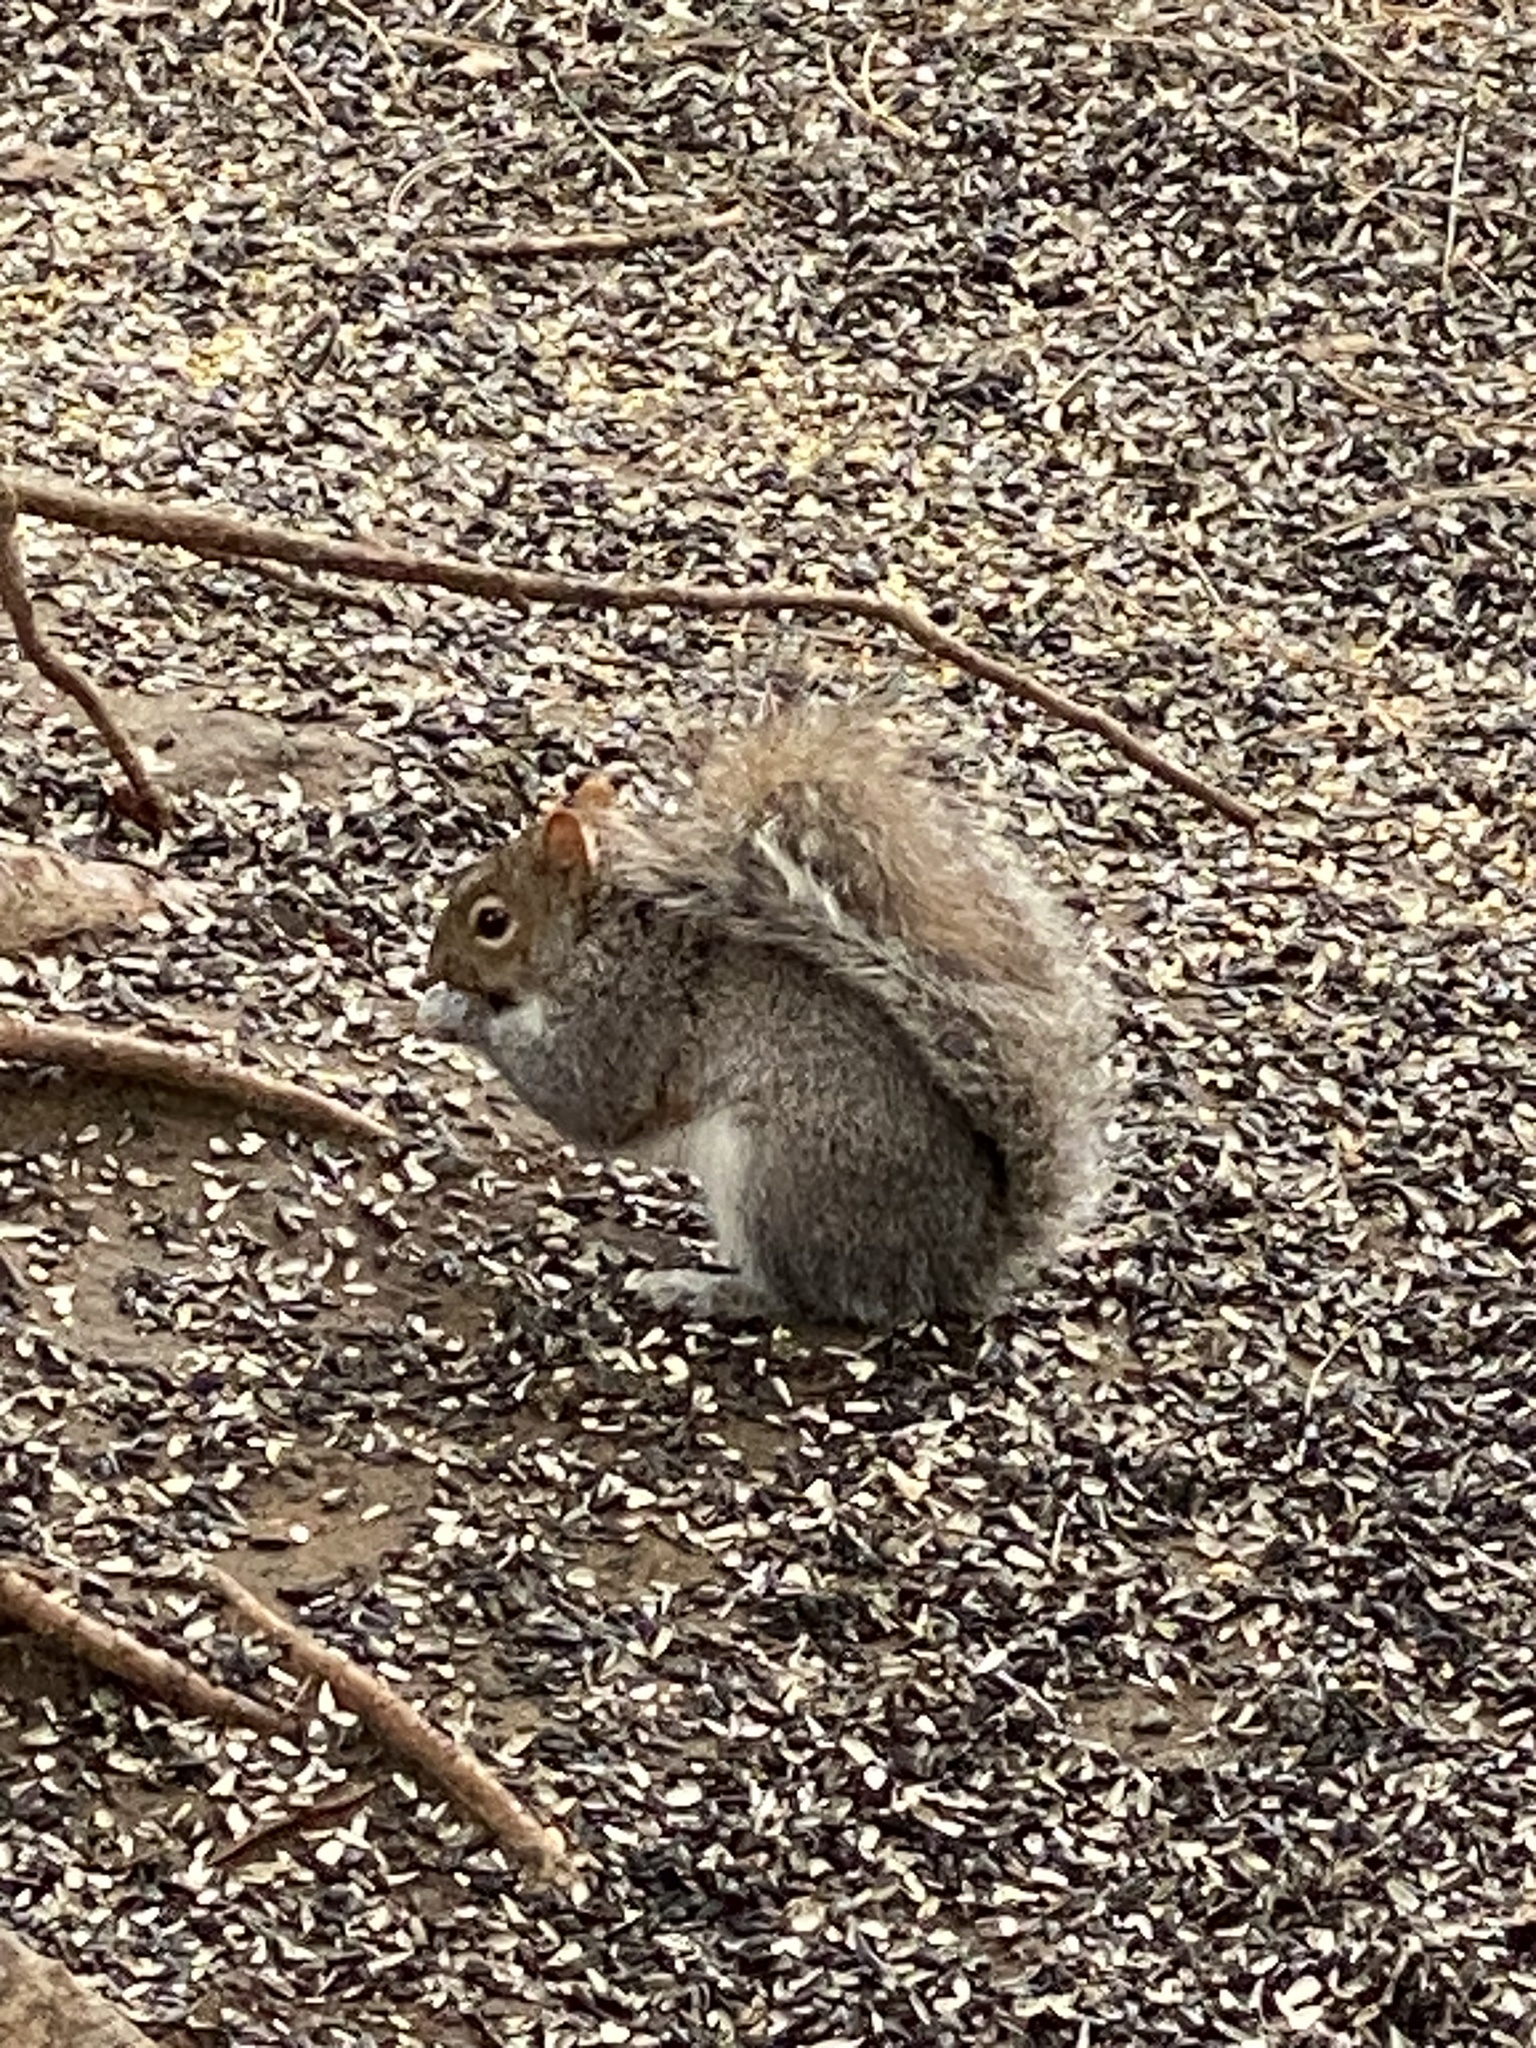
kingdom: Animalia
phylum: Chordata
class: Mammalia
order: Rodentia
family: Sciuridae
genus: Sciurus
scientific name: Sciurus carolinensis
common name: Eastern gray squirrel
